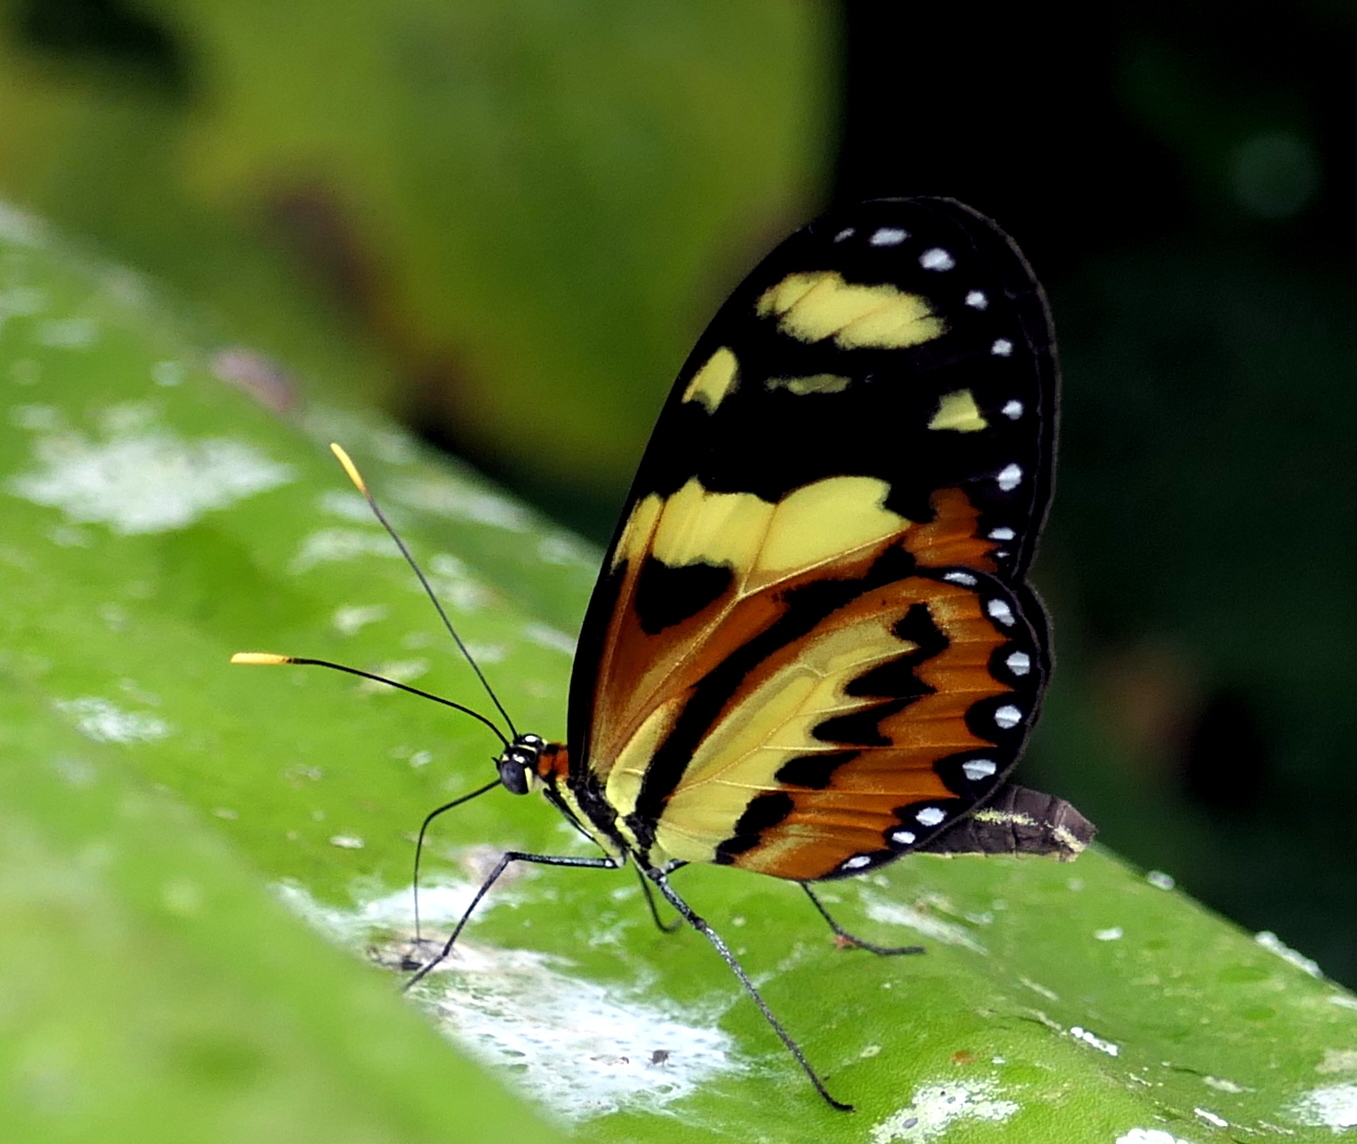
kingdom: Animalia
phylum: Arthropoda
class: Insecta
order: Lepidoptera
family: Nymphalidae
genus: Mechanitis
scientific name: Mechanitis lysimnia
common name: Lysimnia tigerwing
